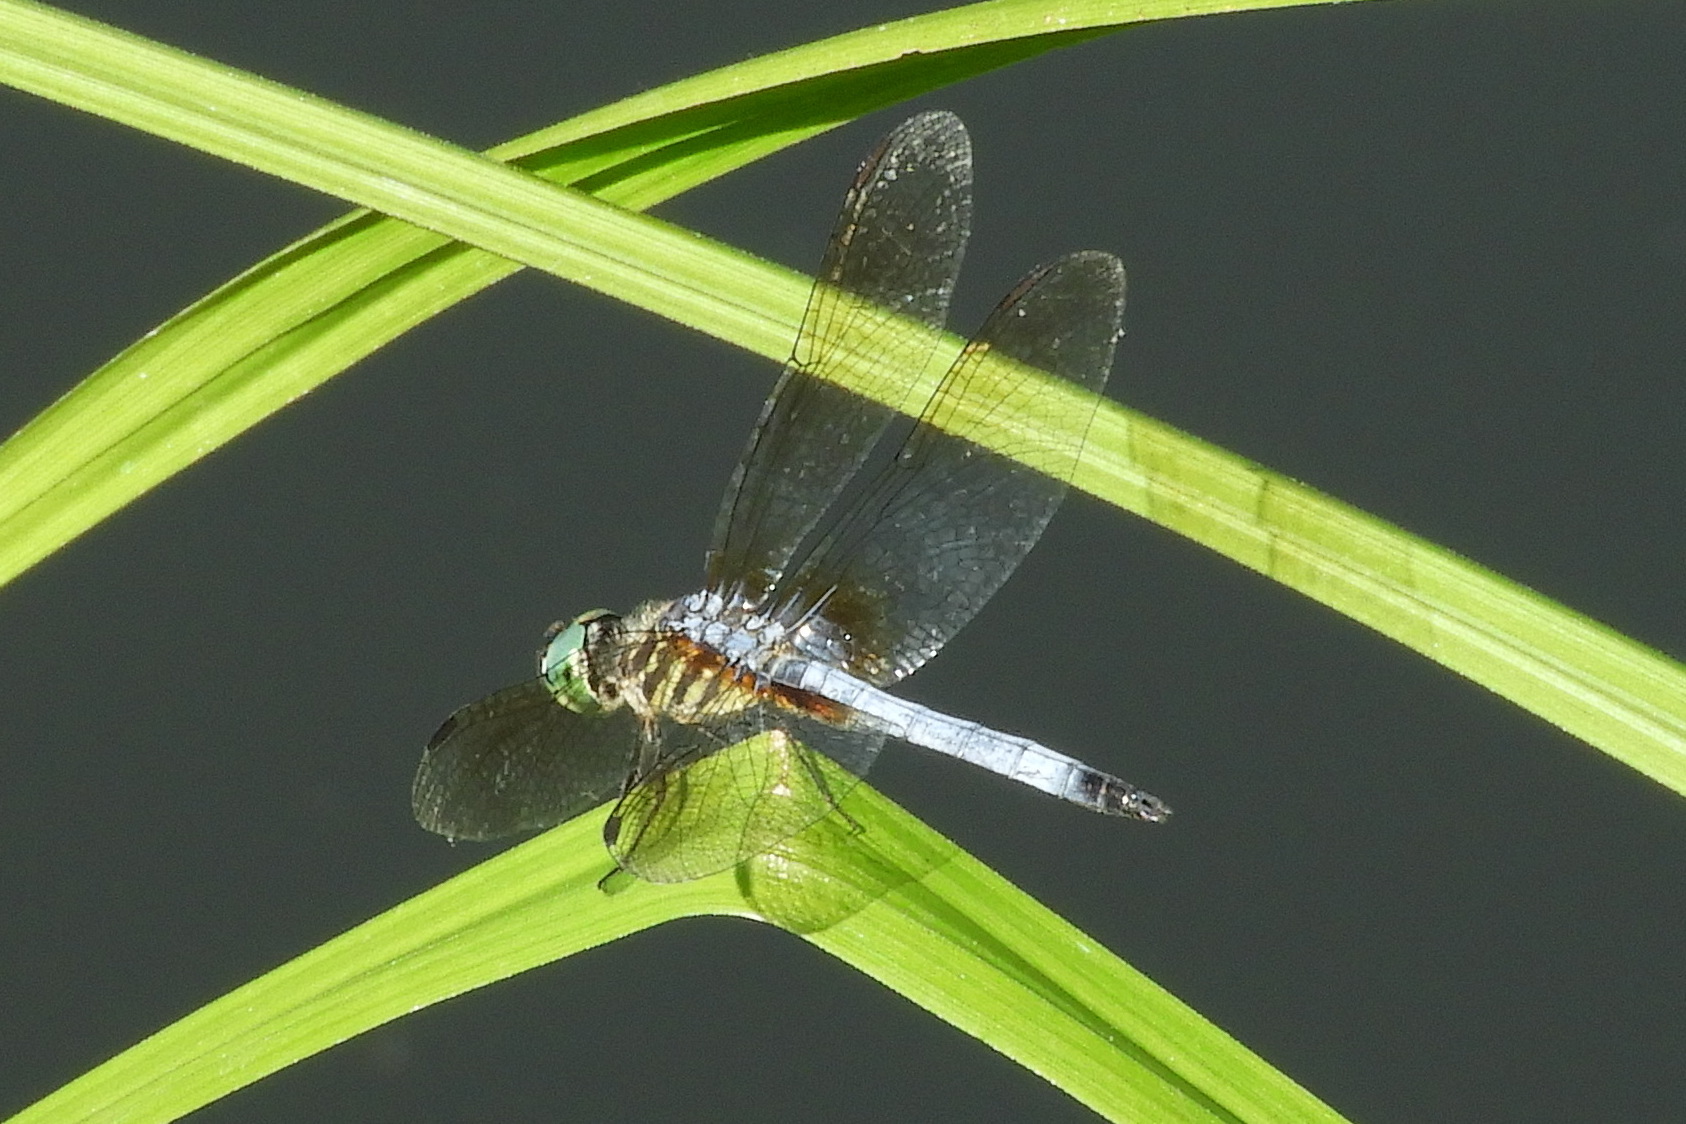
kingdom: Animalia
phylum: Arthropoda
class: Insecta
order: Odonata
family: Libellulidae
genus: Pachydiplax
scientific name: Pachydiplax longipennis
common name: Blue dasher
